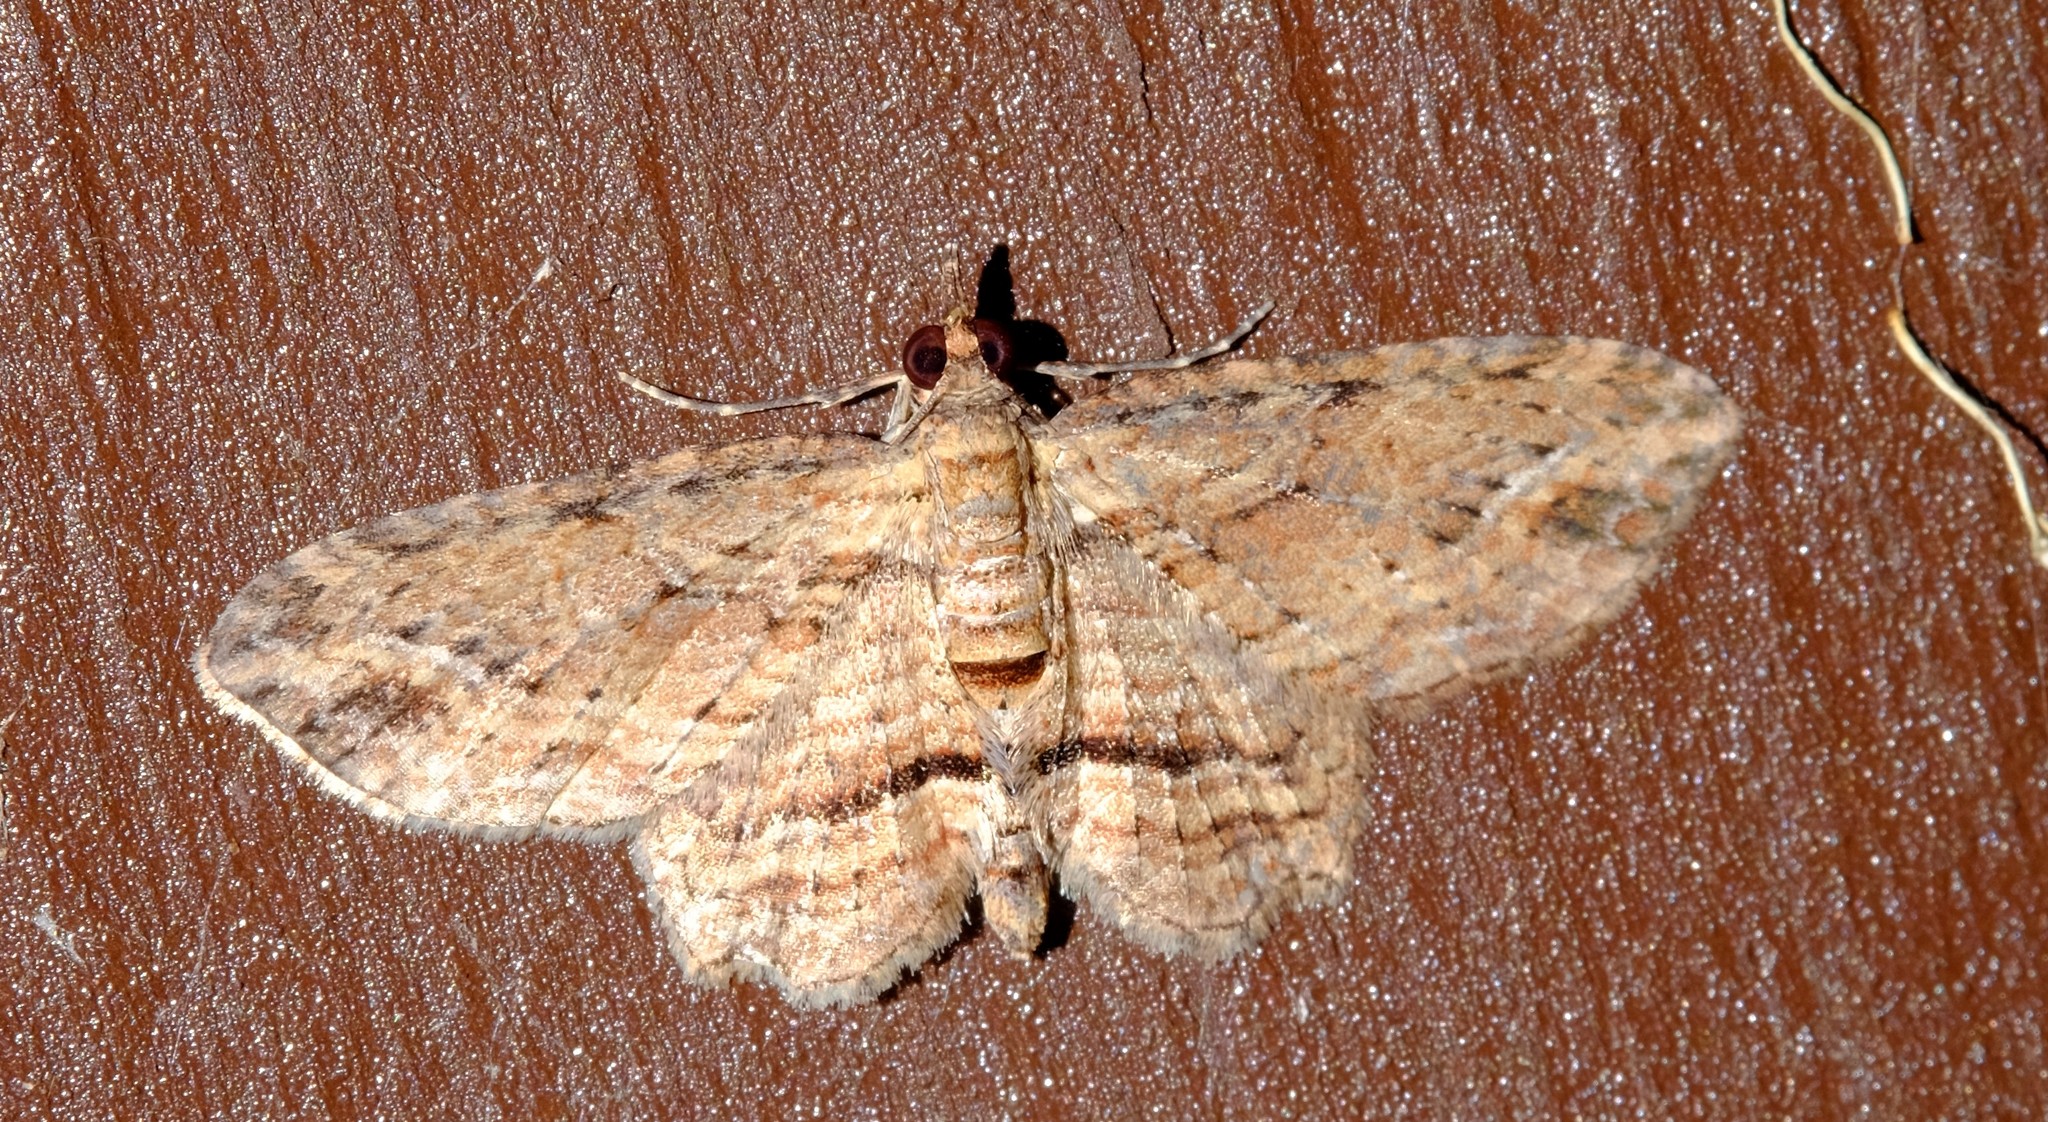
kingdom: Animalia
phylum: Arthropoda
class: Insecta
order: Lepidoptera
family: Geometridae
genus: Chloroclystis
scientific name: Chloroclystis filata
